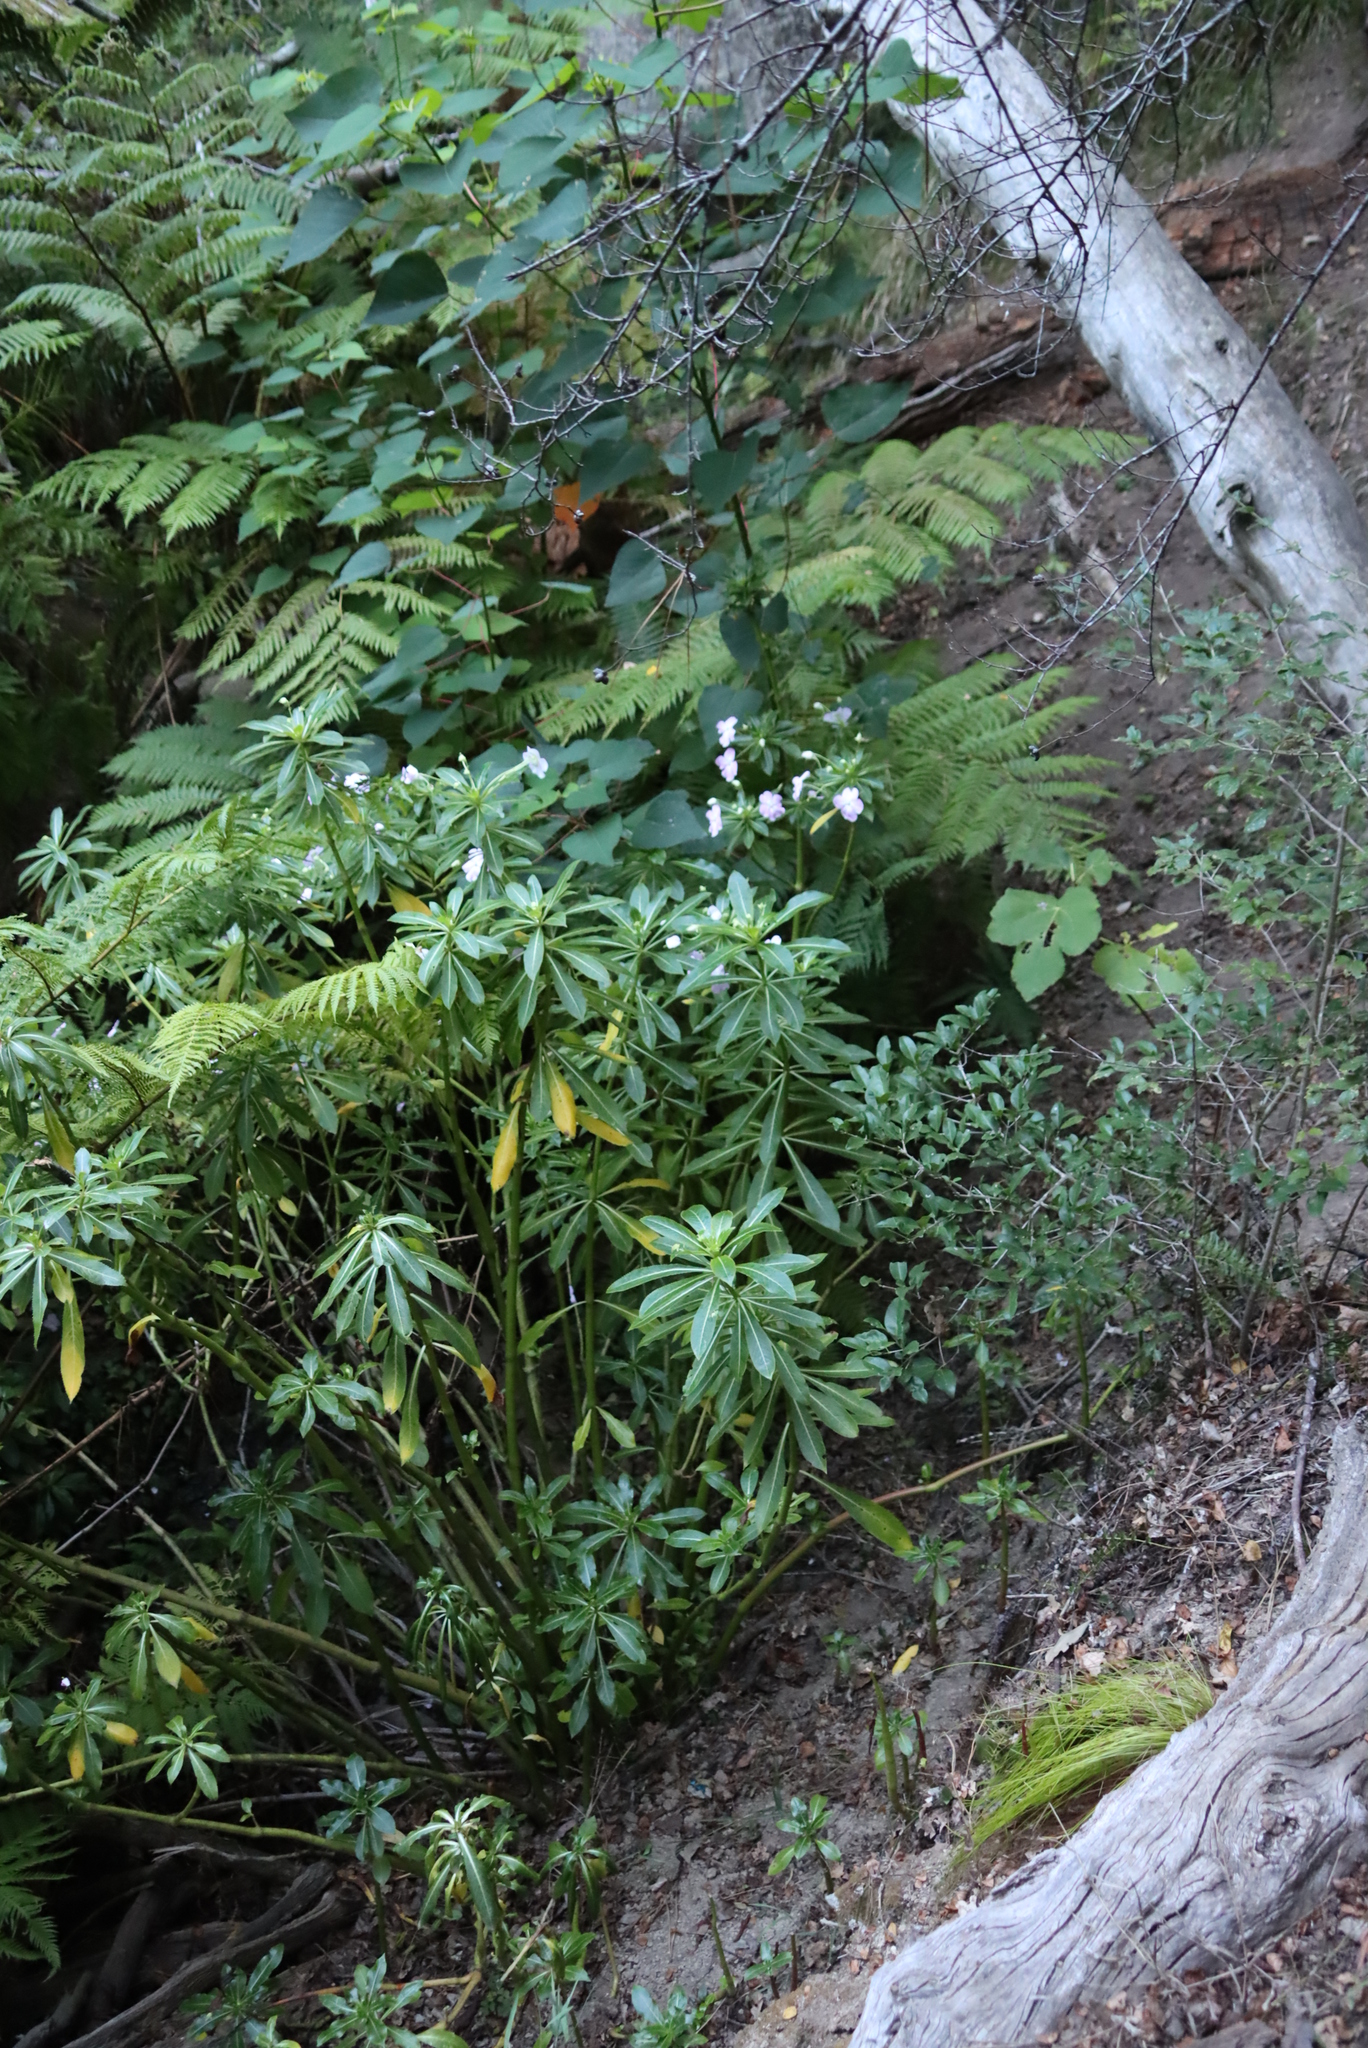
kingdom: Plantae
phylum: Tracheophyta
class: Magnoliopsida
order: Ericales
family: Balsaminaceae
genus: Impatiens
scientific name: Impatiens sodenii
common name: Oliver's touch-me-not
